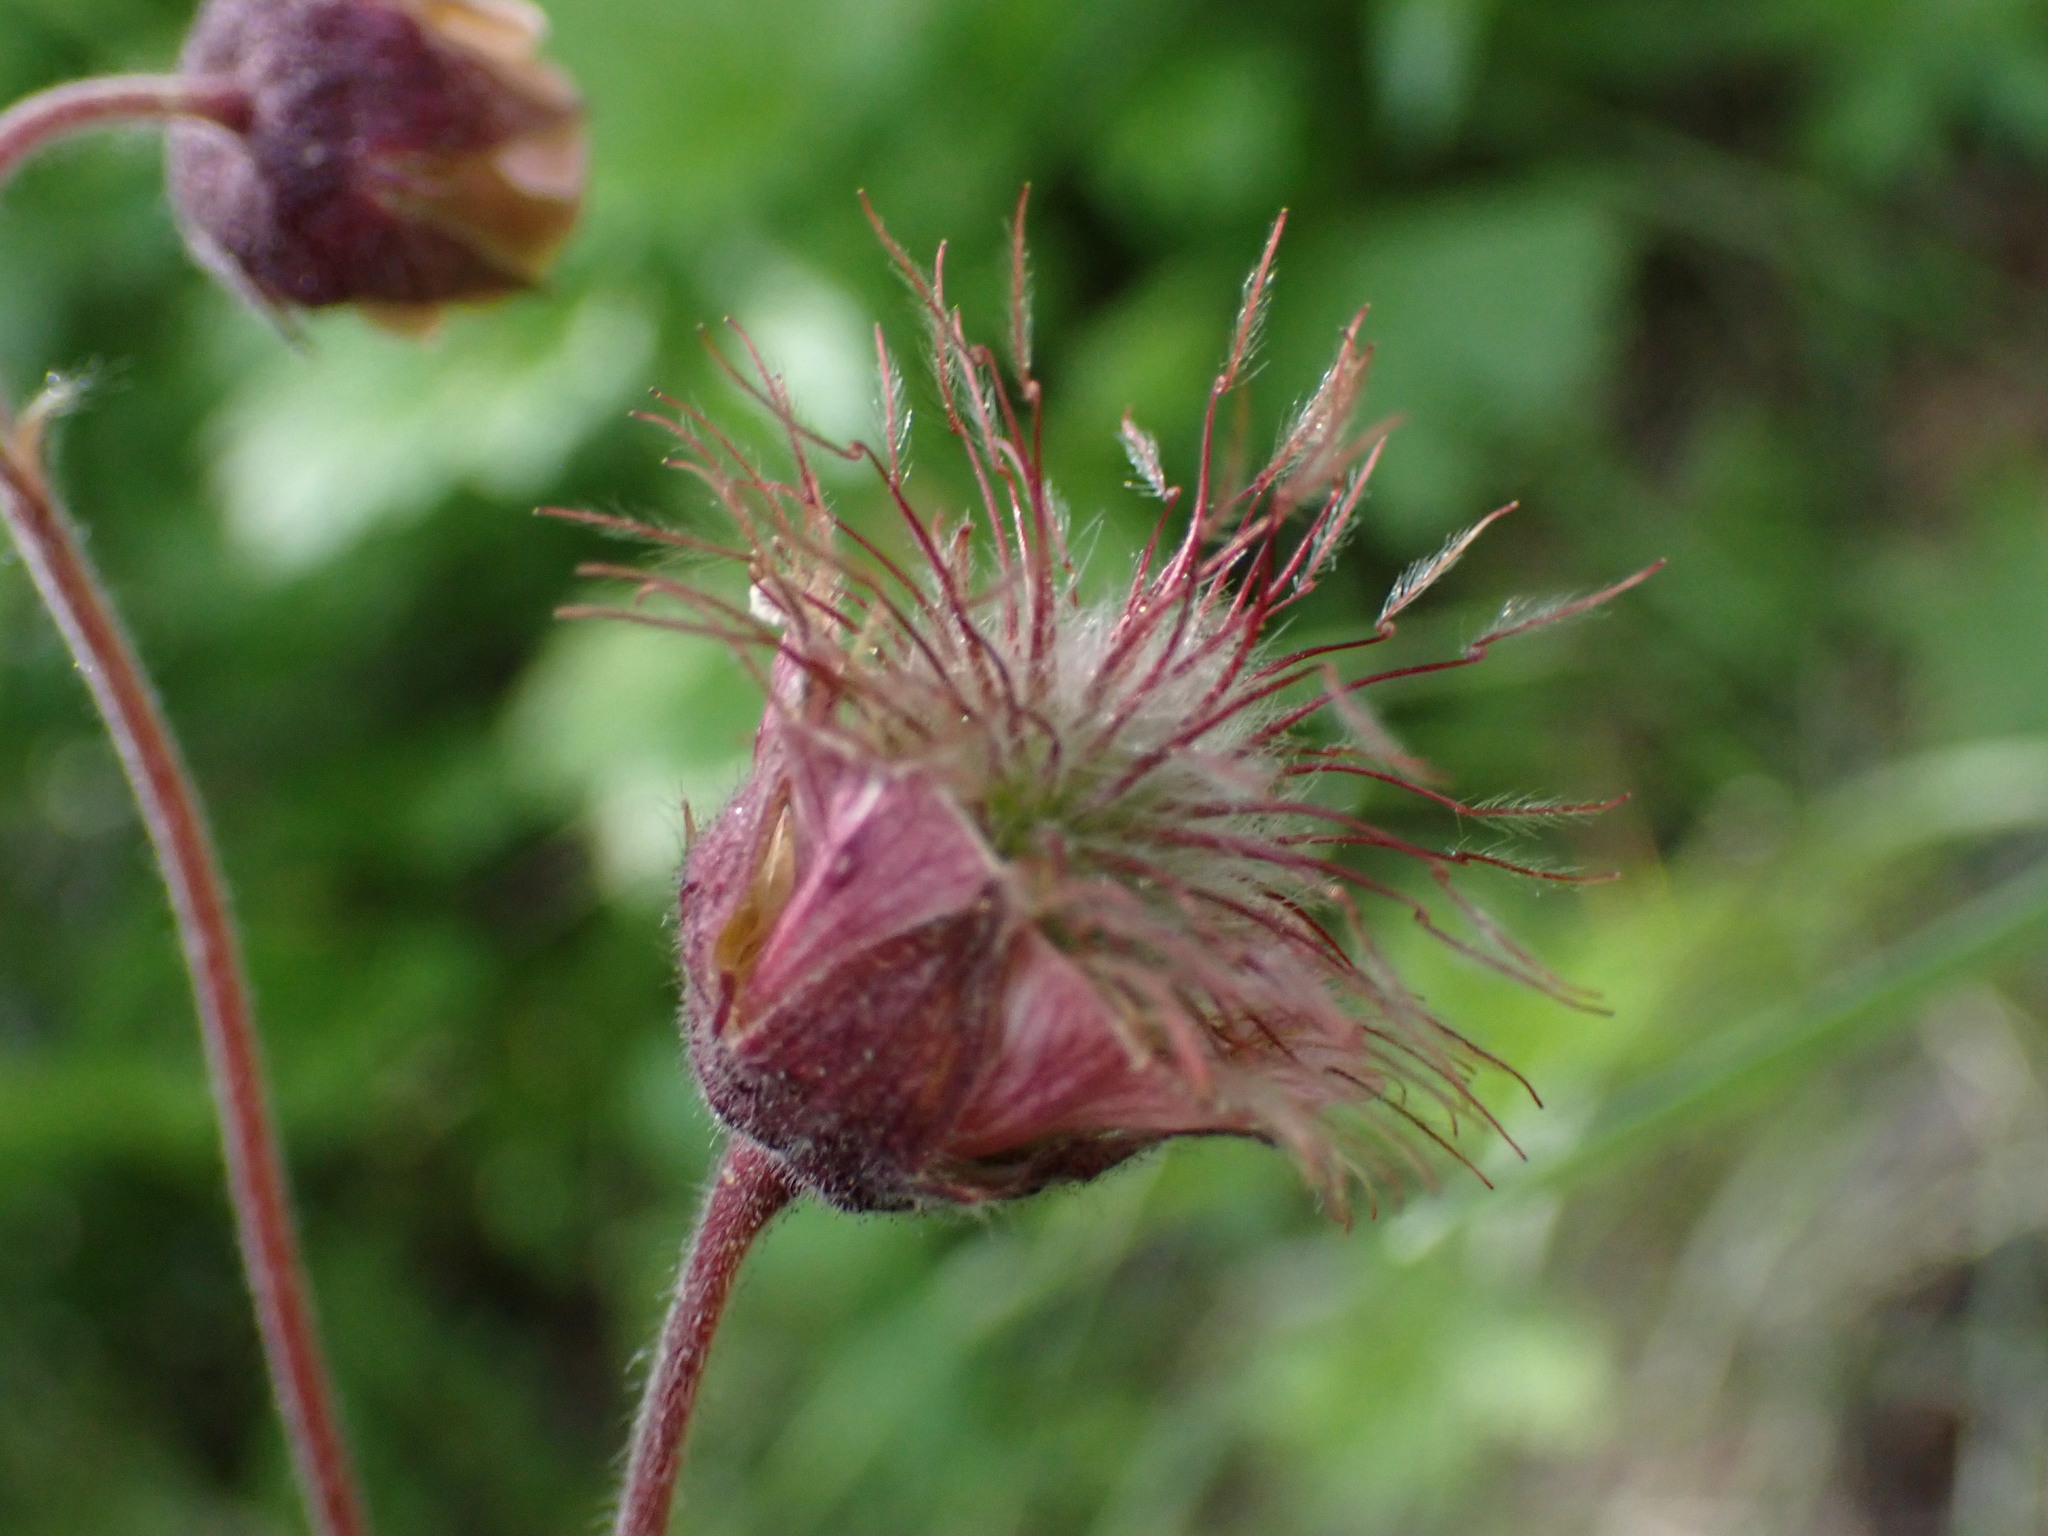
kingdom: Plantae
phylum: Tracheophyta
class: Magnoliopsida
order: Rosales
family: Rosaceae
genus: Geum
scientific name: Geum rivale
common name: Water avens
